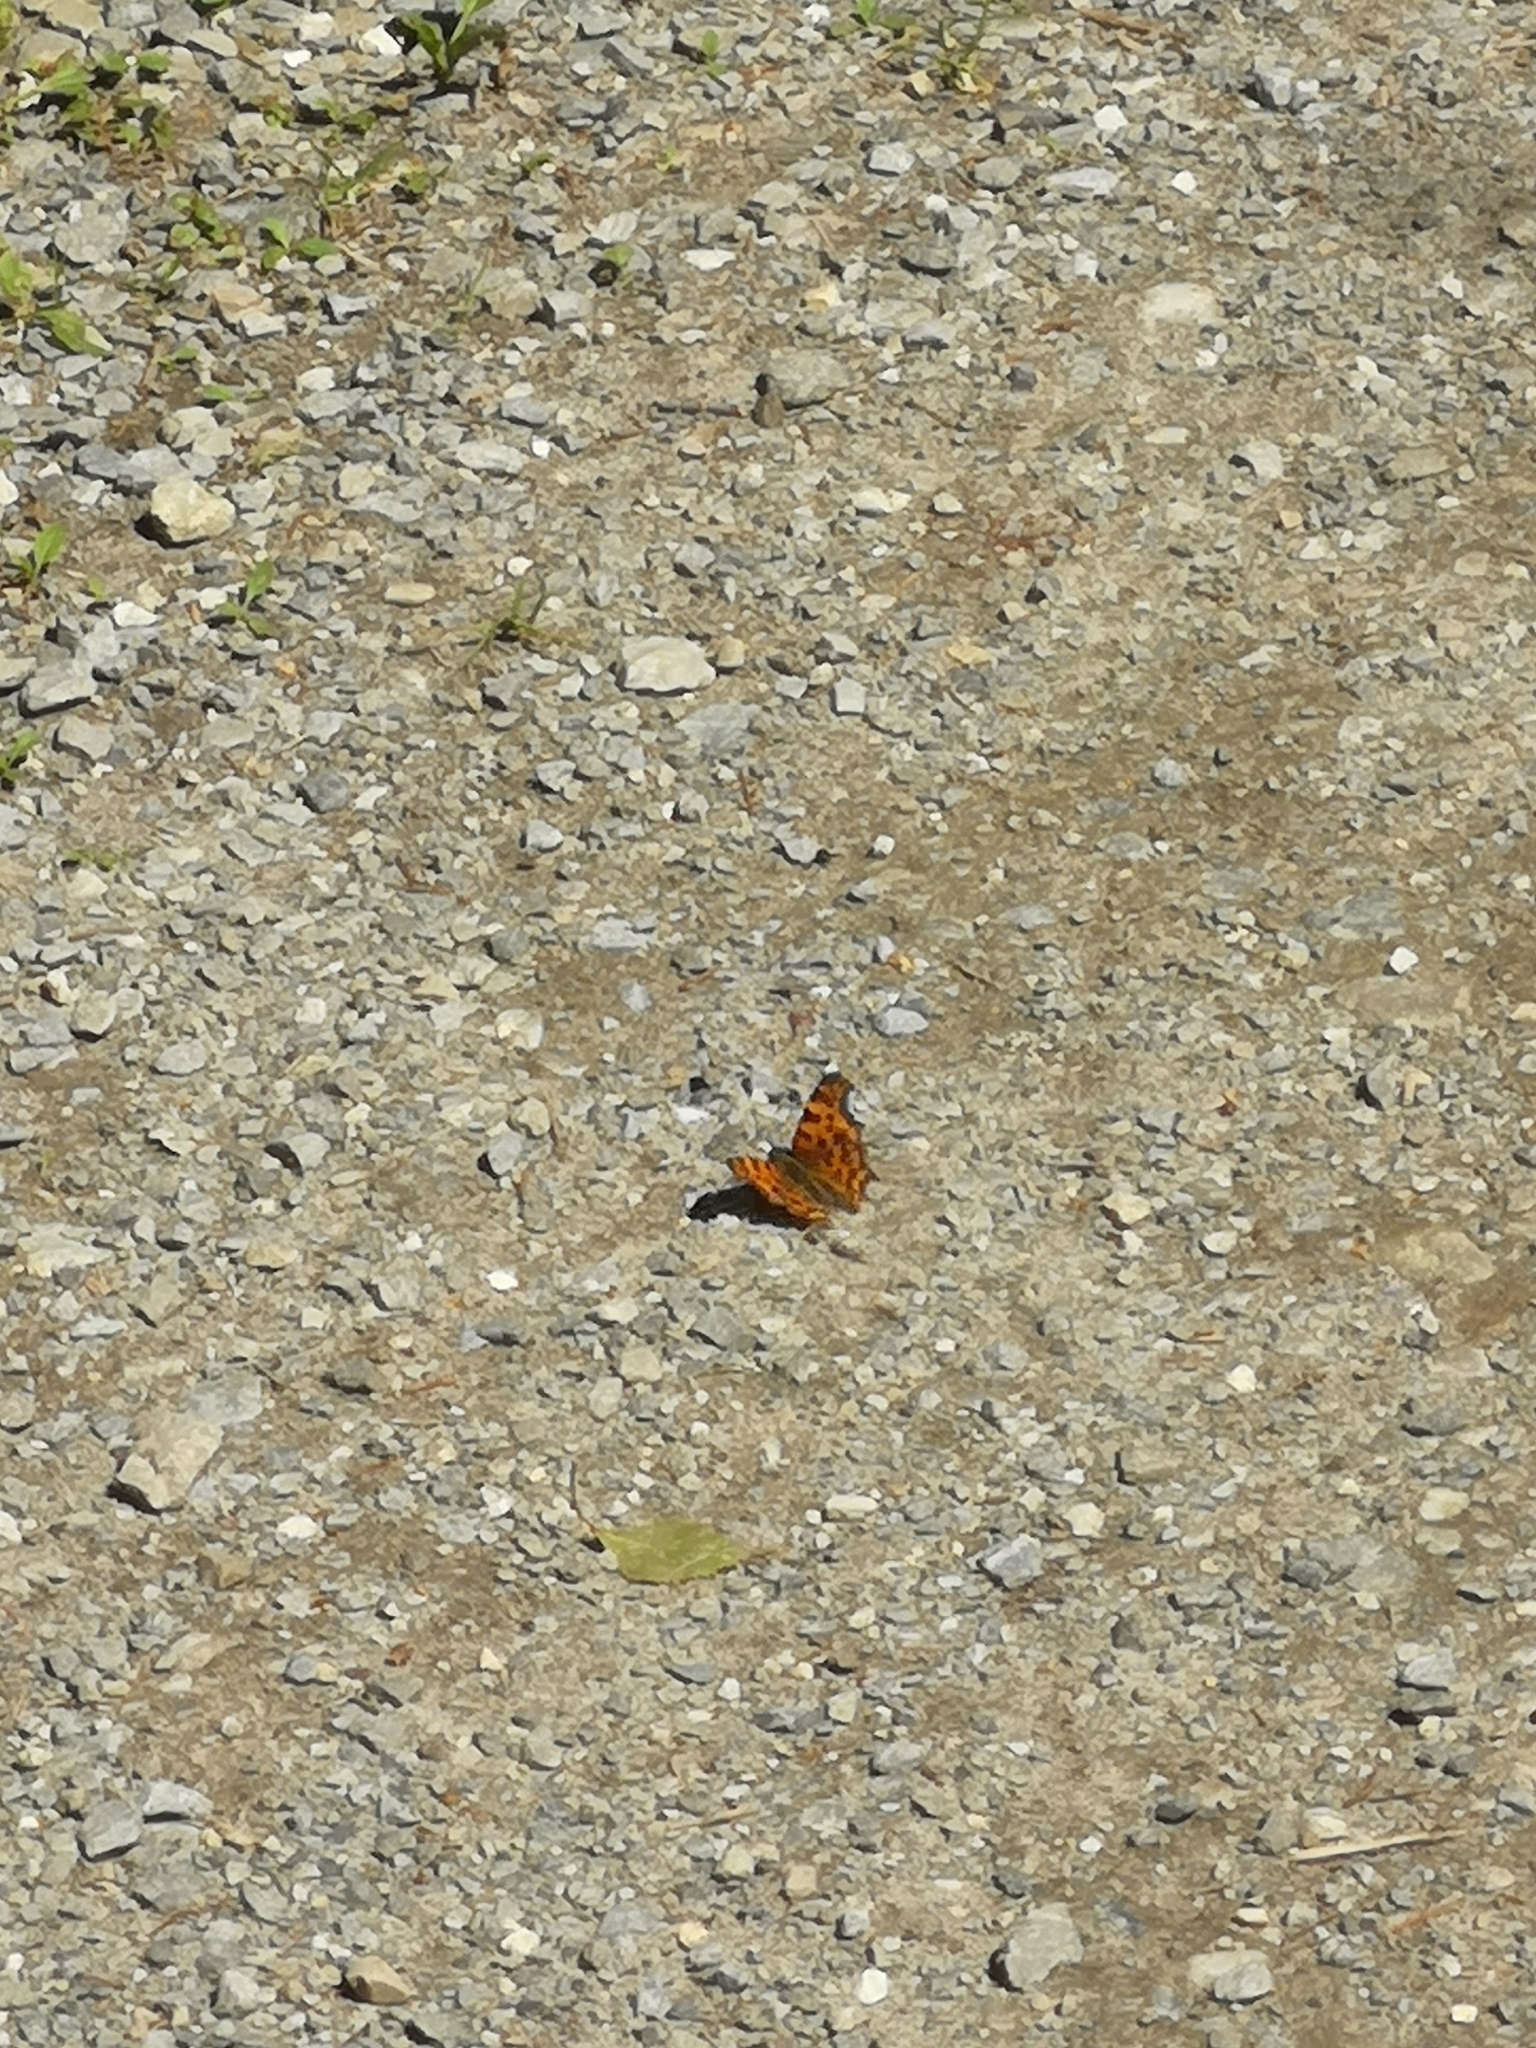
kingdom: Animalia
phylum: Arthropoda
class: Insecta
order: Lepidoptera
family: Nymphalidae
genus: Polygonia
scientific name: Polygonia c-album
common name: Comma
